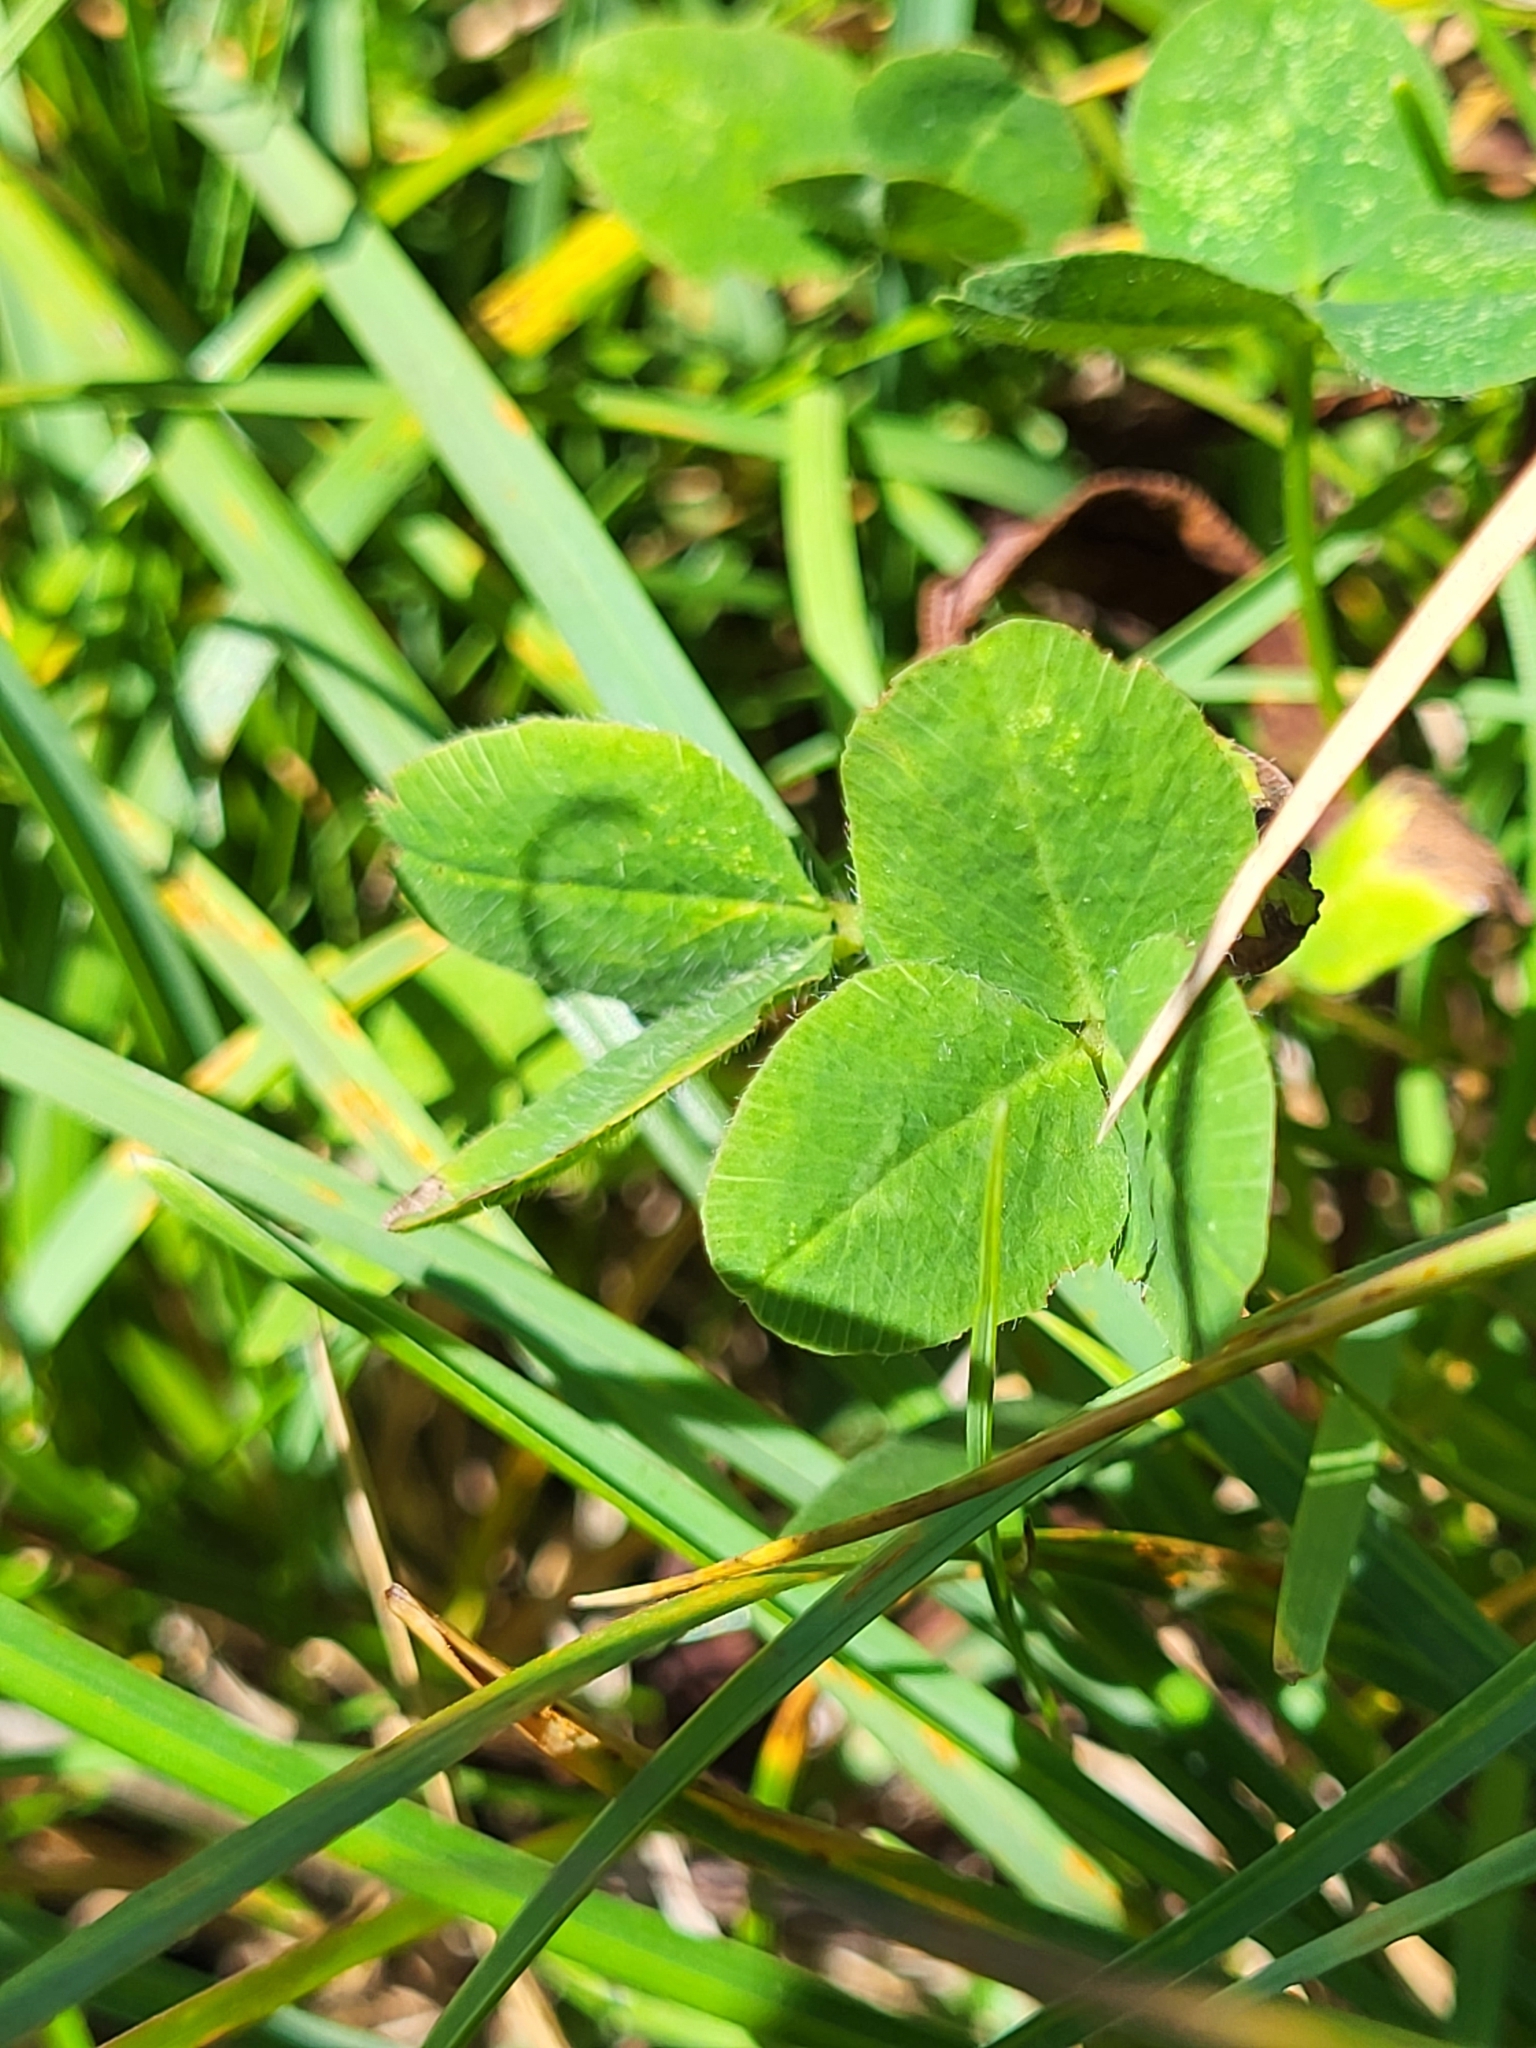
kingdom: Plantae
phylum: Tracheophyta
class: Magnoliopsida
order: Fabales
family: Fabaceae
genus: Trifolium
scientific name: Trifolium pratense
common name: Red clover
